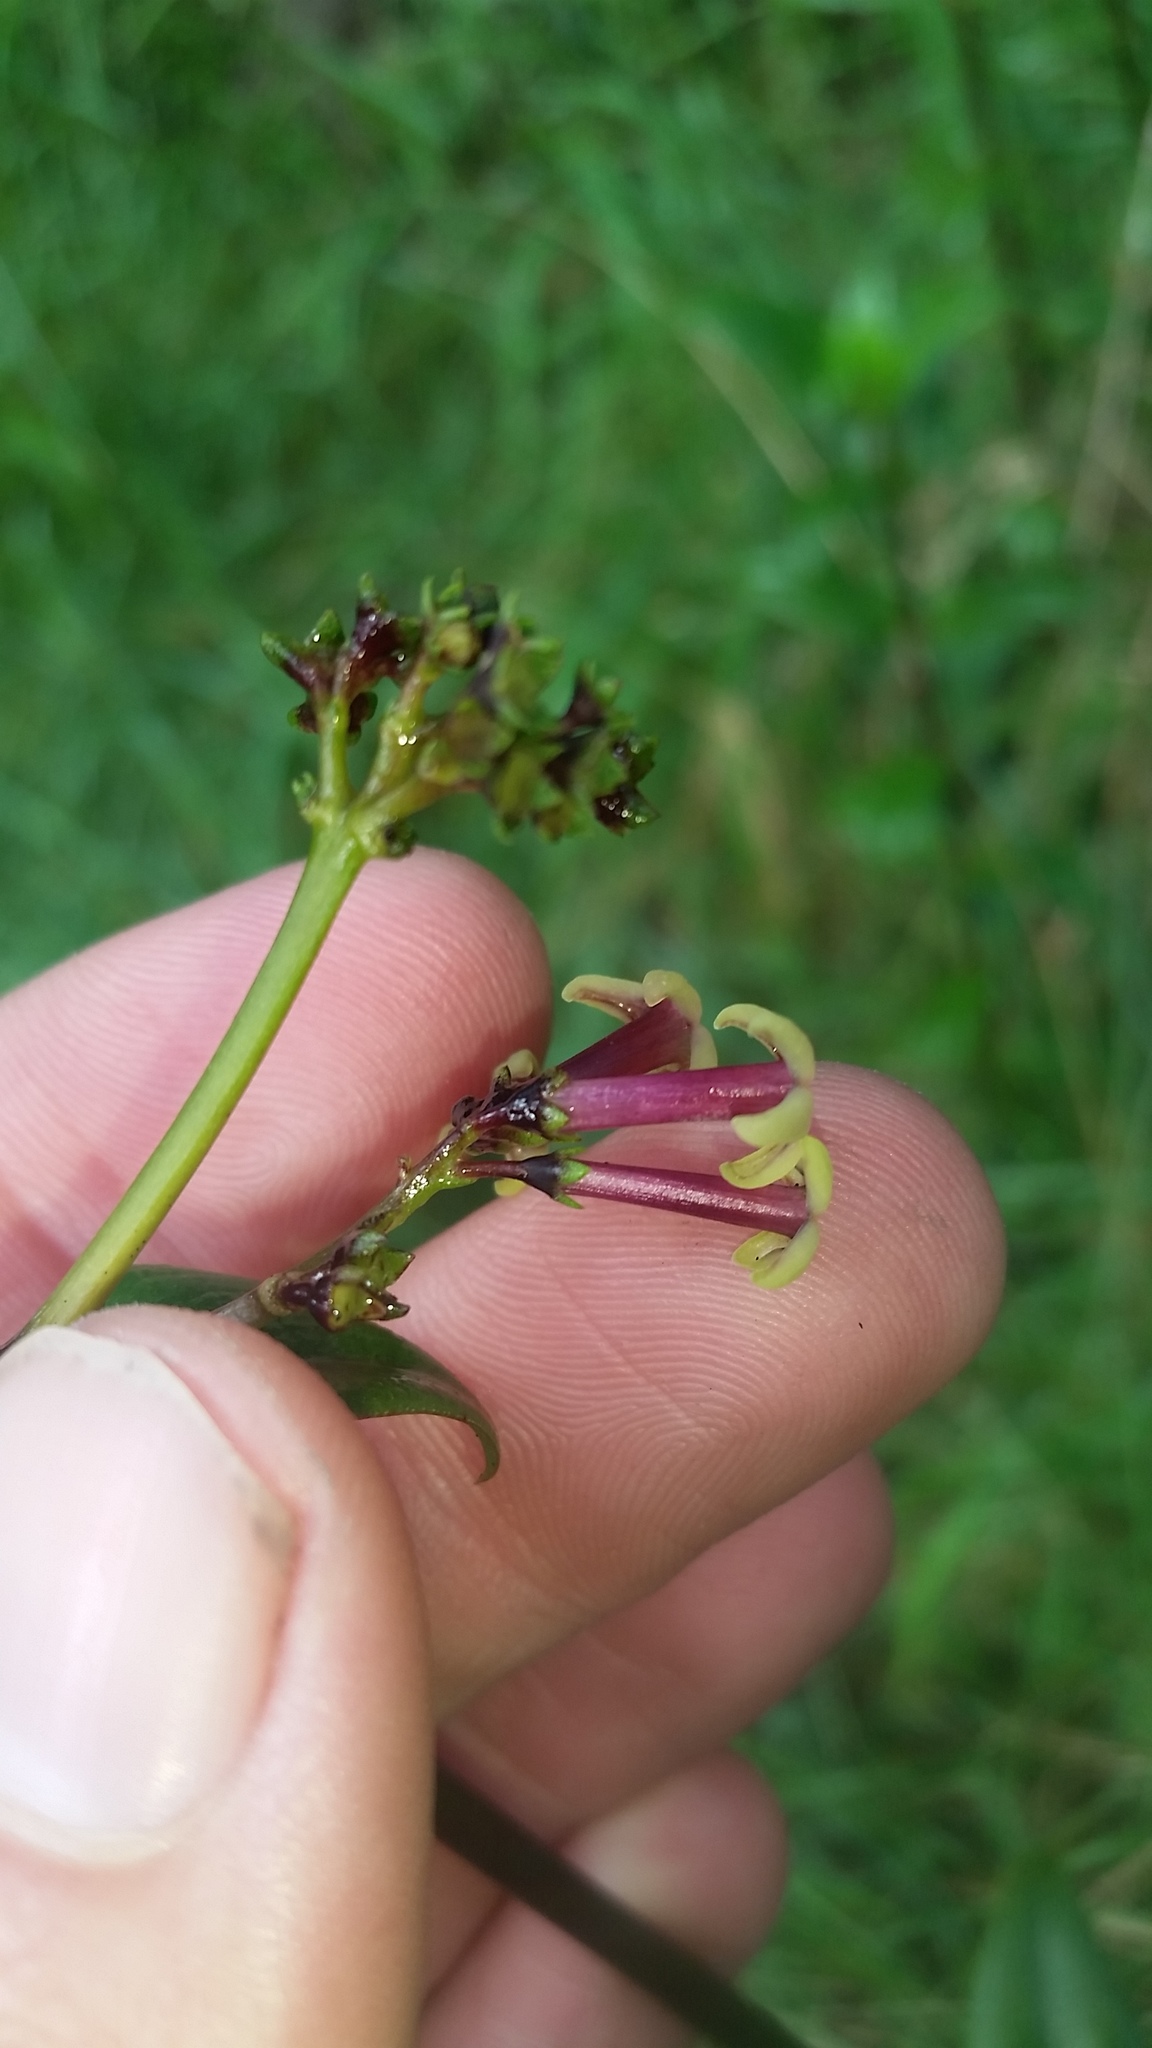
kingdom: Plantae
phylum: Tracheophyta
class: Magnoliopsida
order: Gentianales
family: Rubiaceae
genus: Kadua
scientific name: Kadua centranthoides
